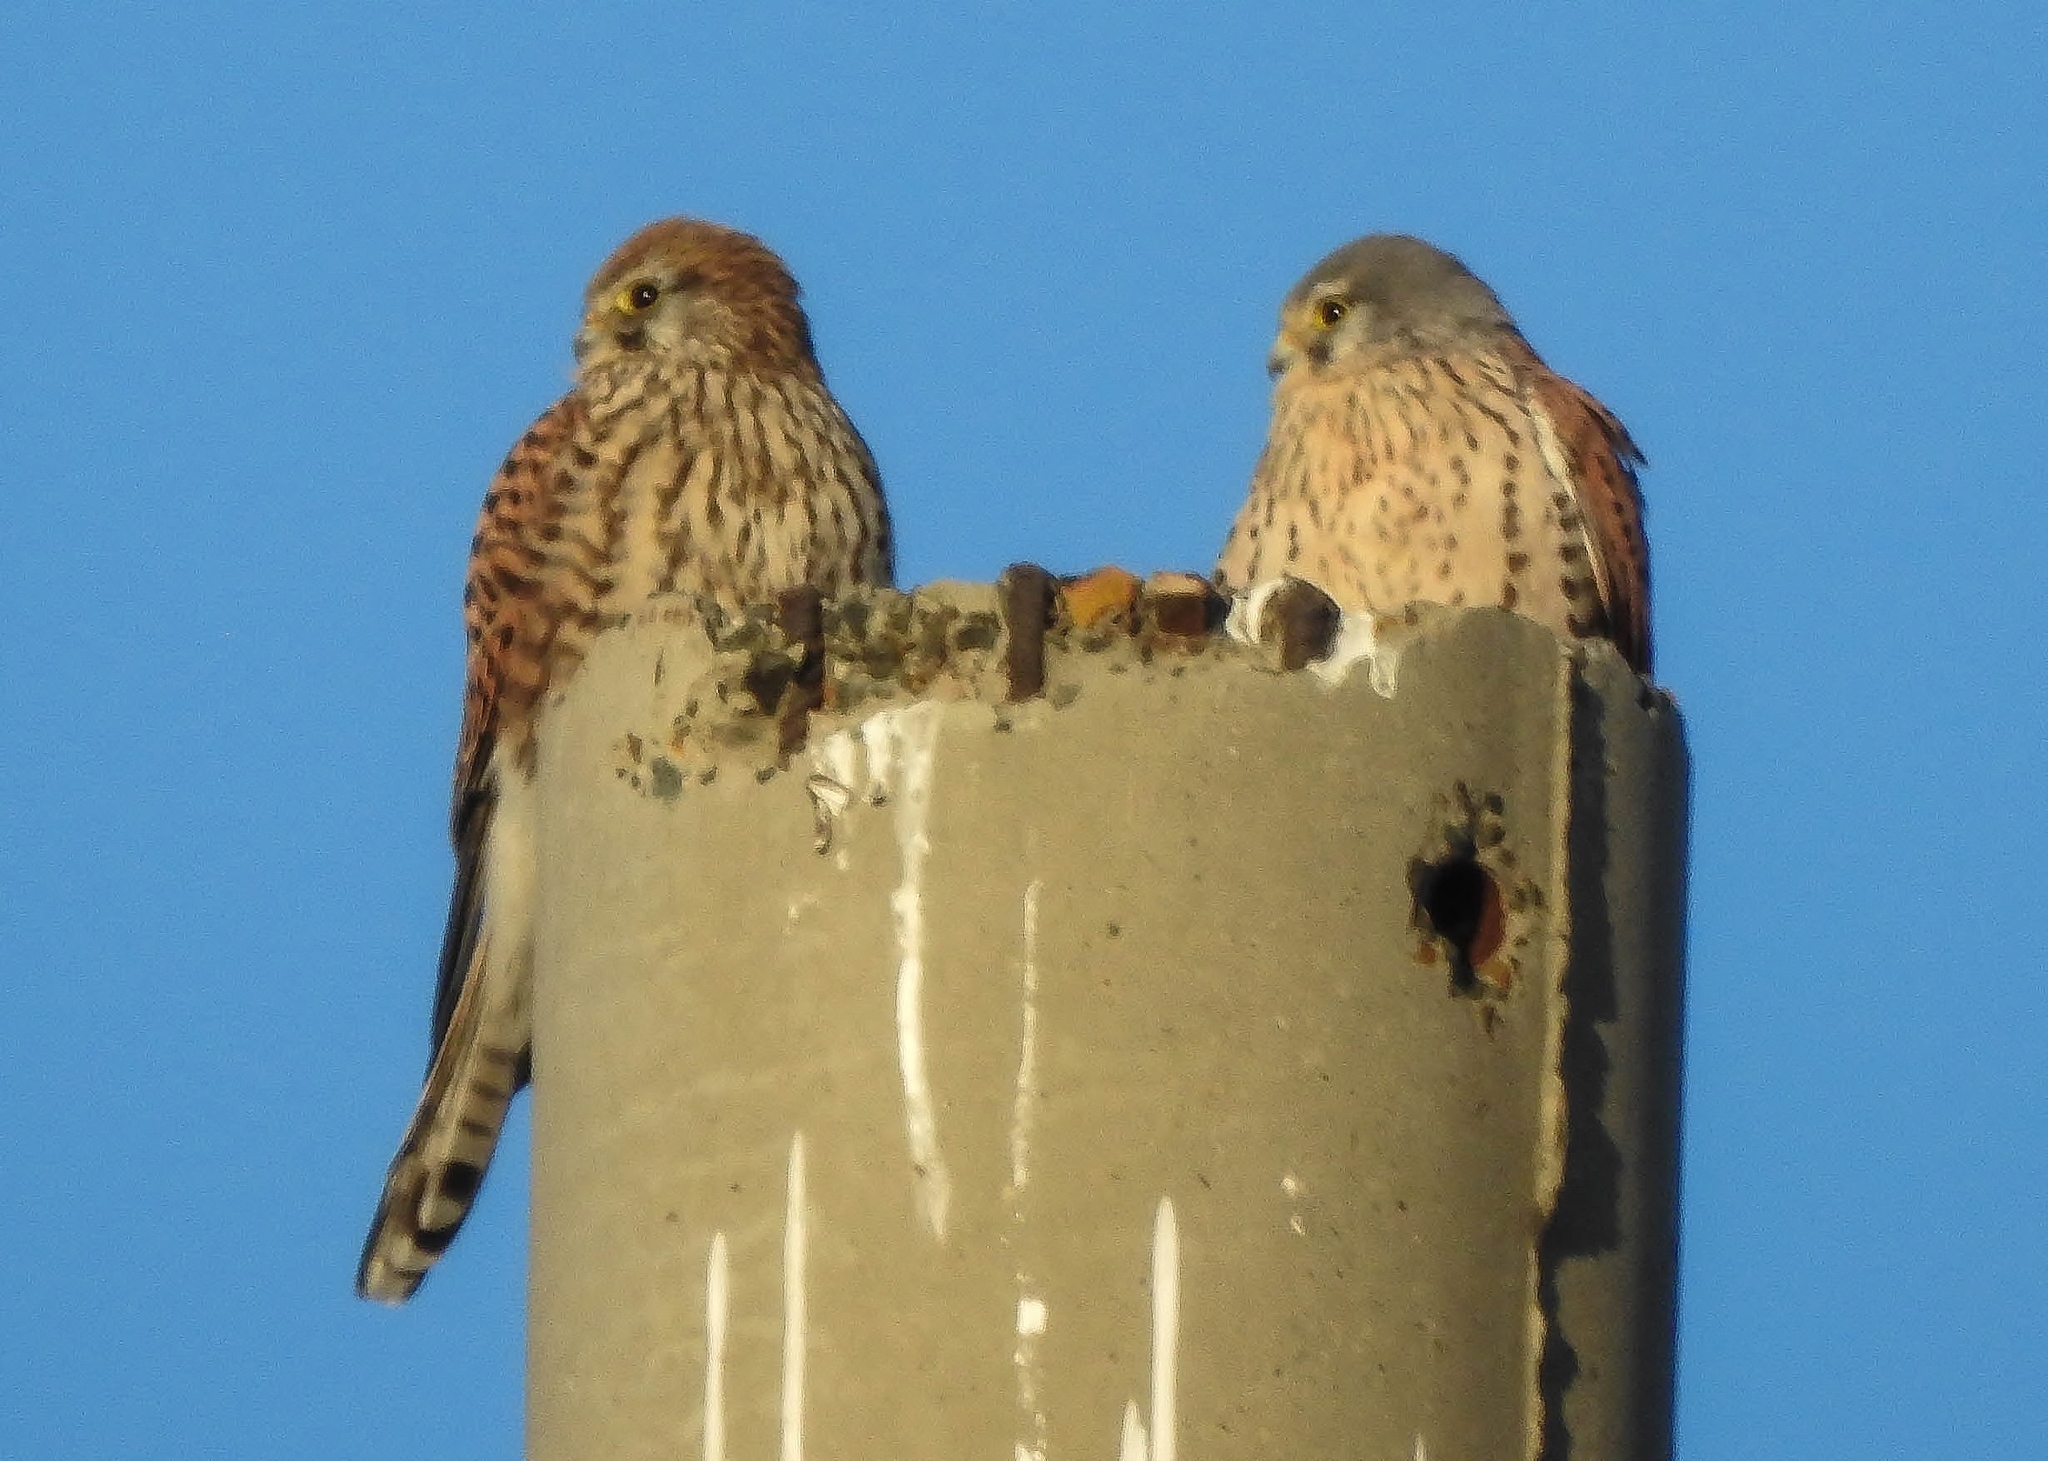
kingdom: Animalia
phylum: Chordata
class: Aves
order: Falconiformes
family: Falconidae
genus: Falco
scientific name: Falco tinnunculus
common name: Common kestrel
